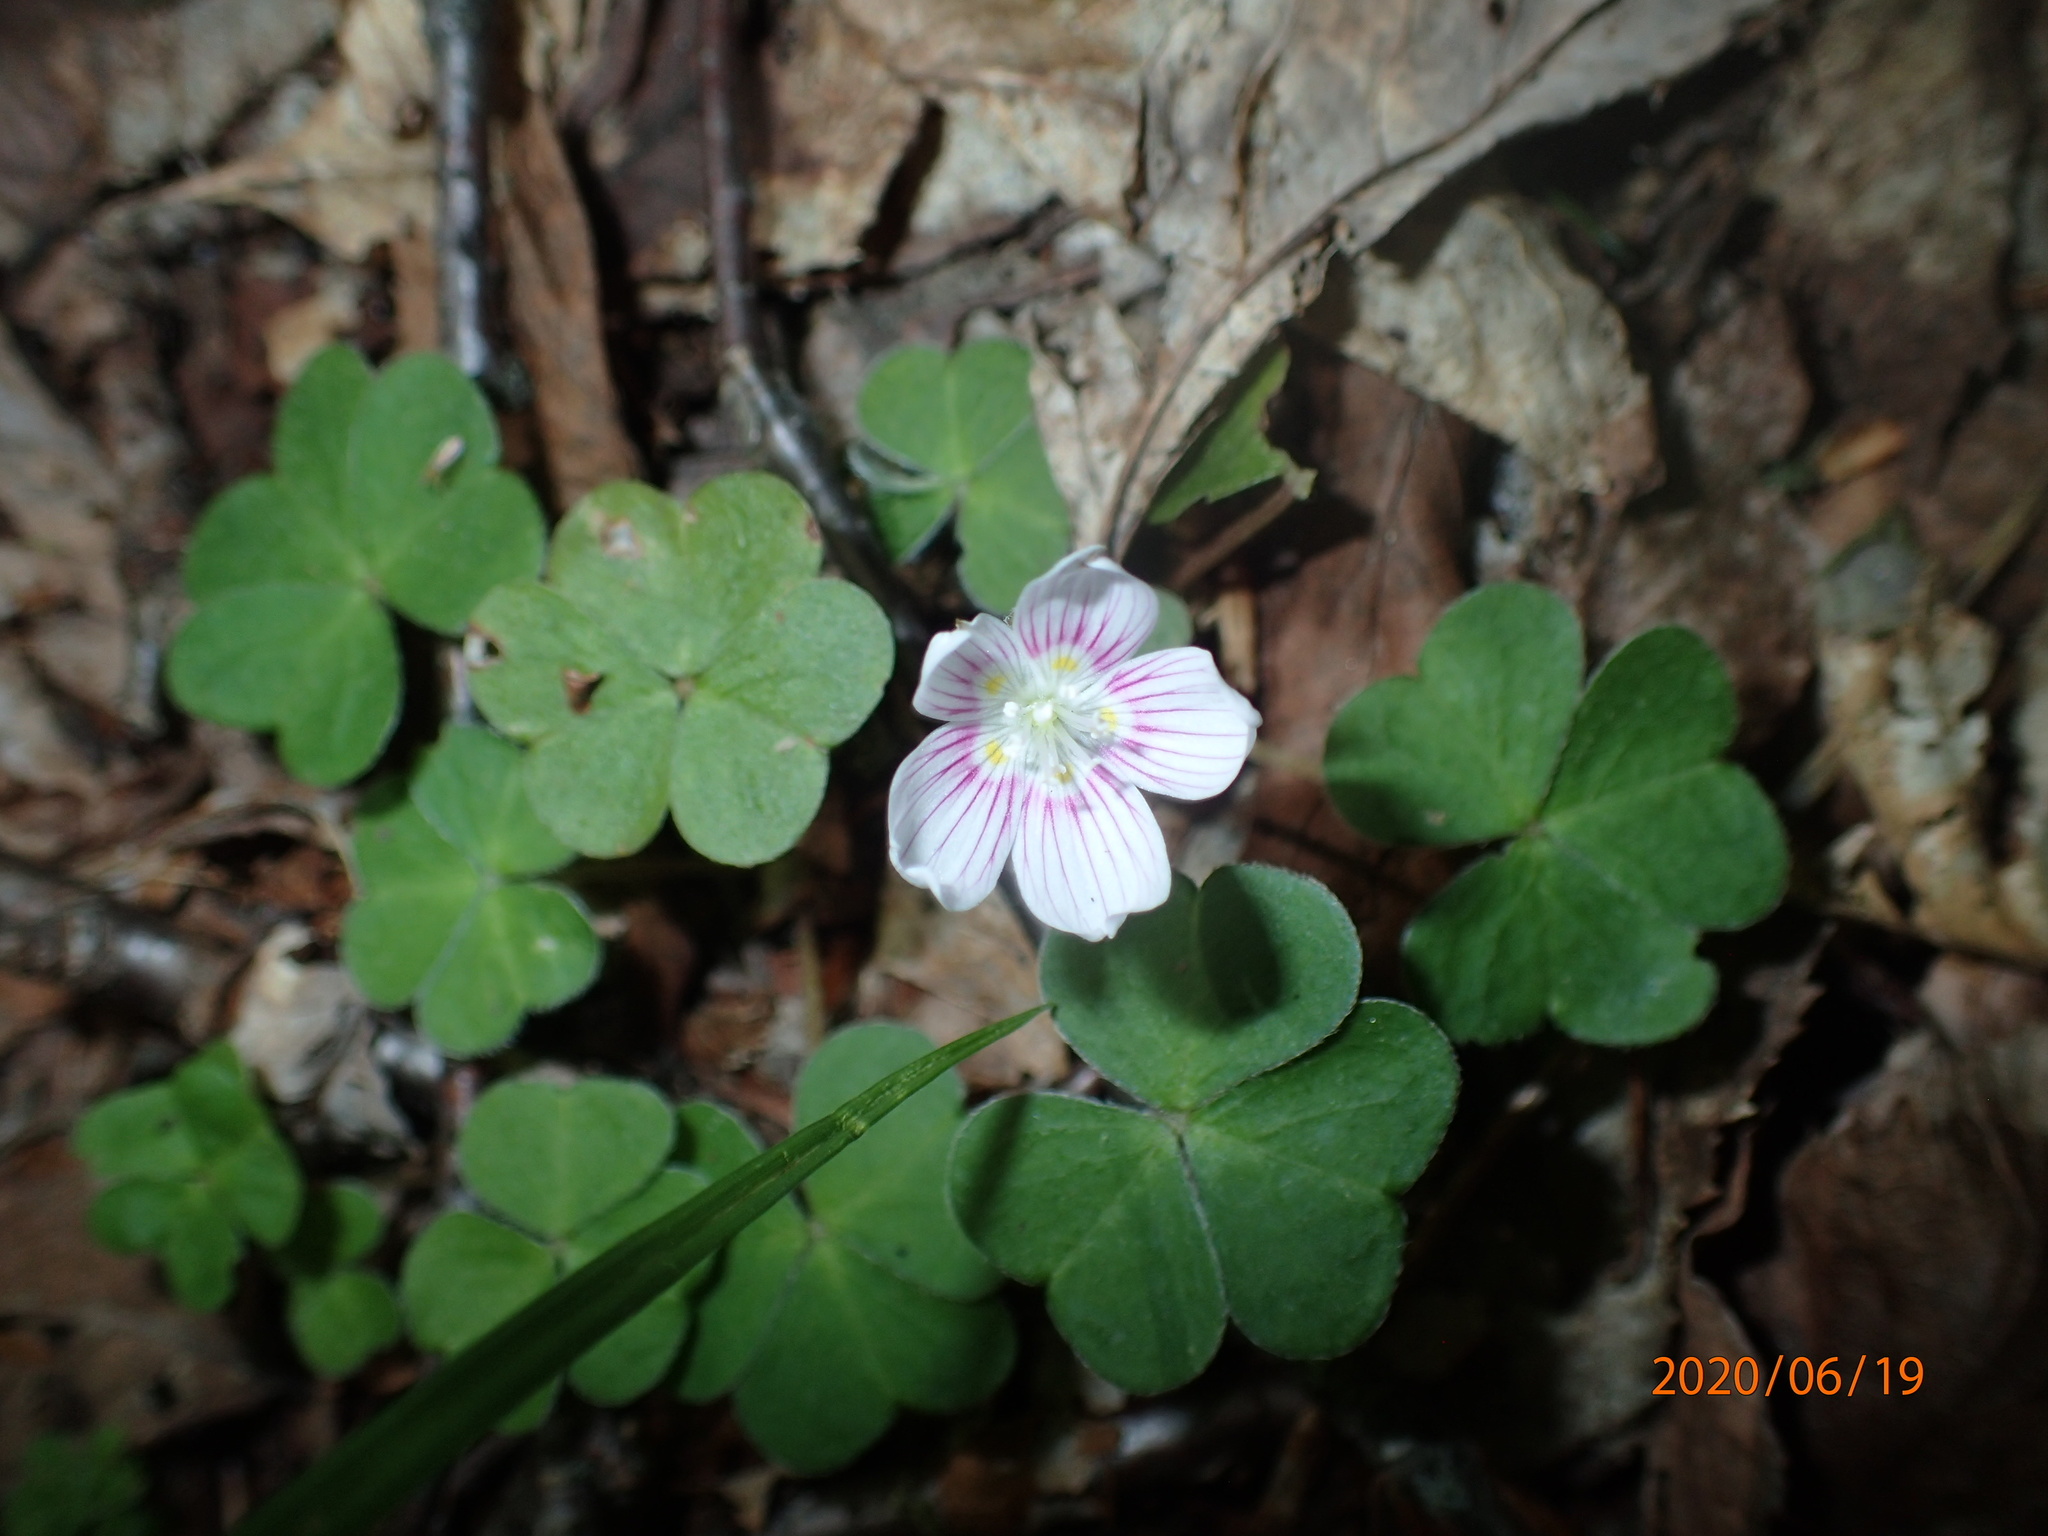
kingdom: Plantae
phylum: Tracheophyta
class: Magnoliopsida
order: Oxalidales
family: Oxalidaceae
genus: Oxalis
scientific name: Oxalis montana
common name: American wood-sorrel
